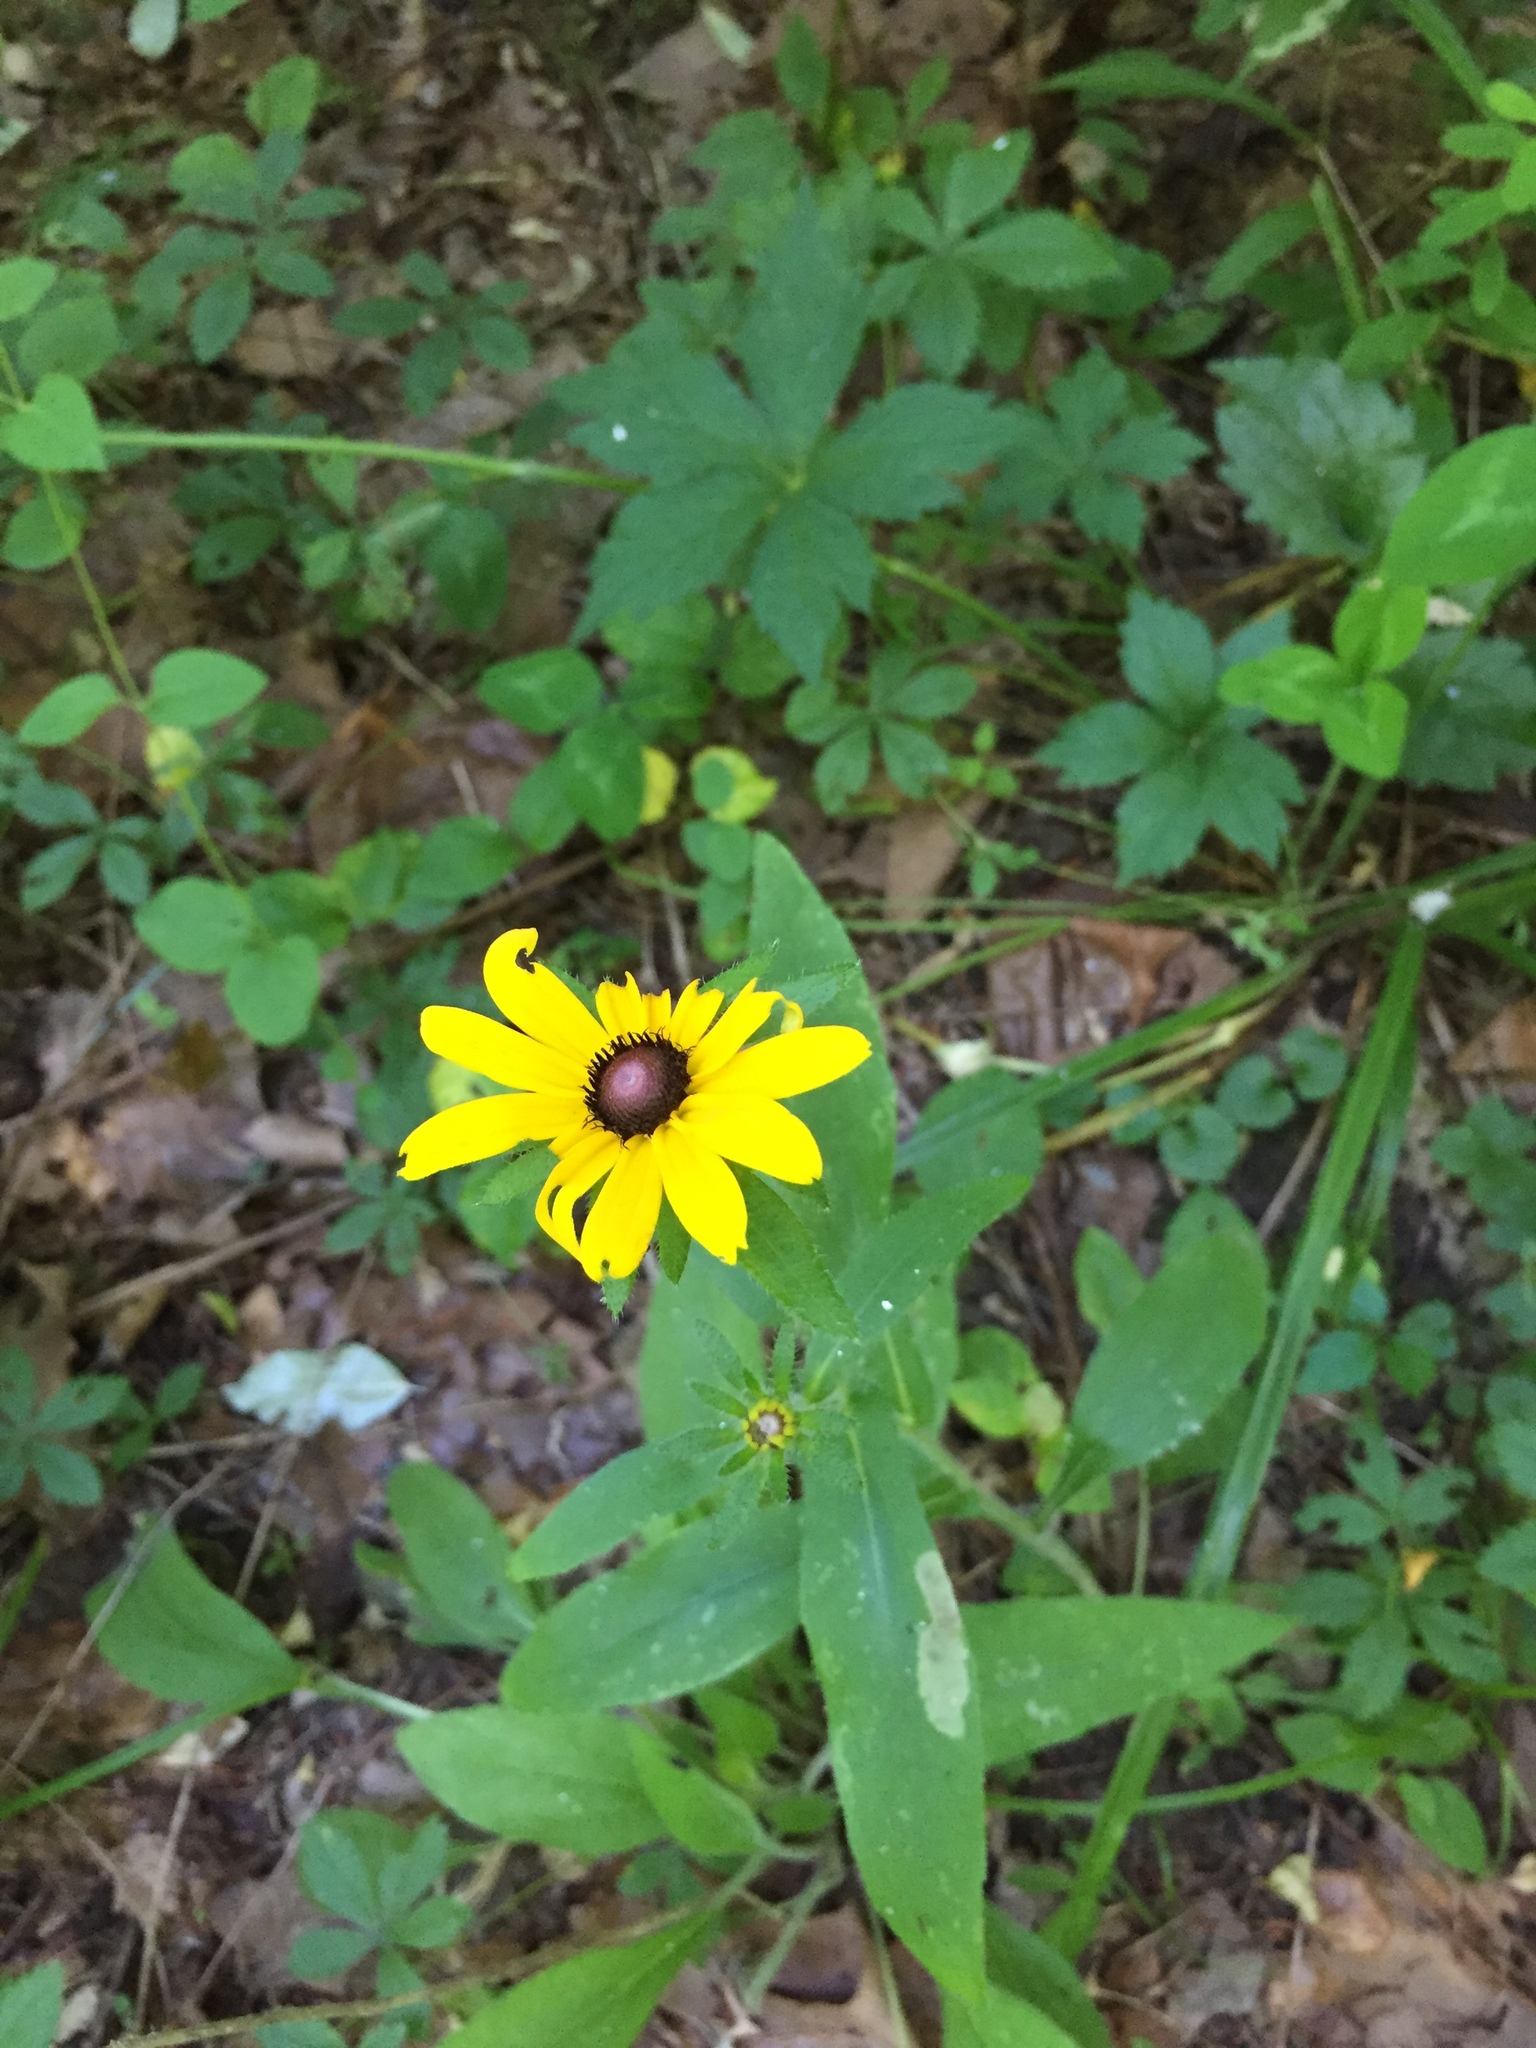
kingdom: Plantae
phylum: Tracheophyta
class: Magnoliopsida
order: Asterales
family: Asteraceae
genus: Rudbeckia
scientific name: Rudbeckia hirta
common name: Black-eyed-susan
